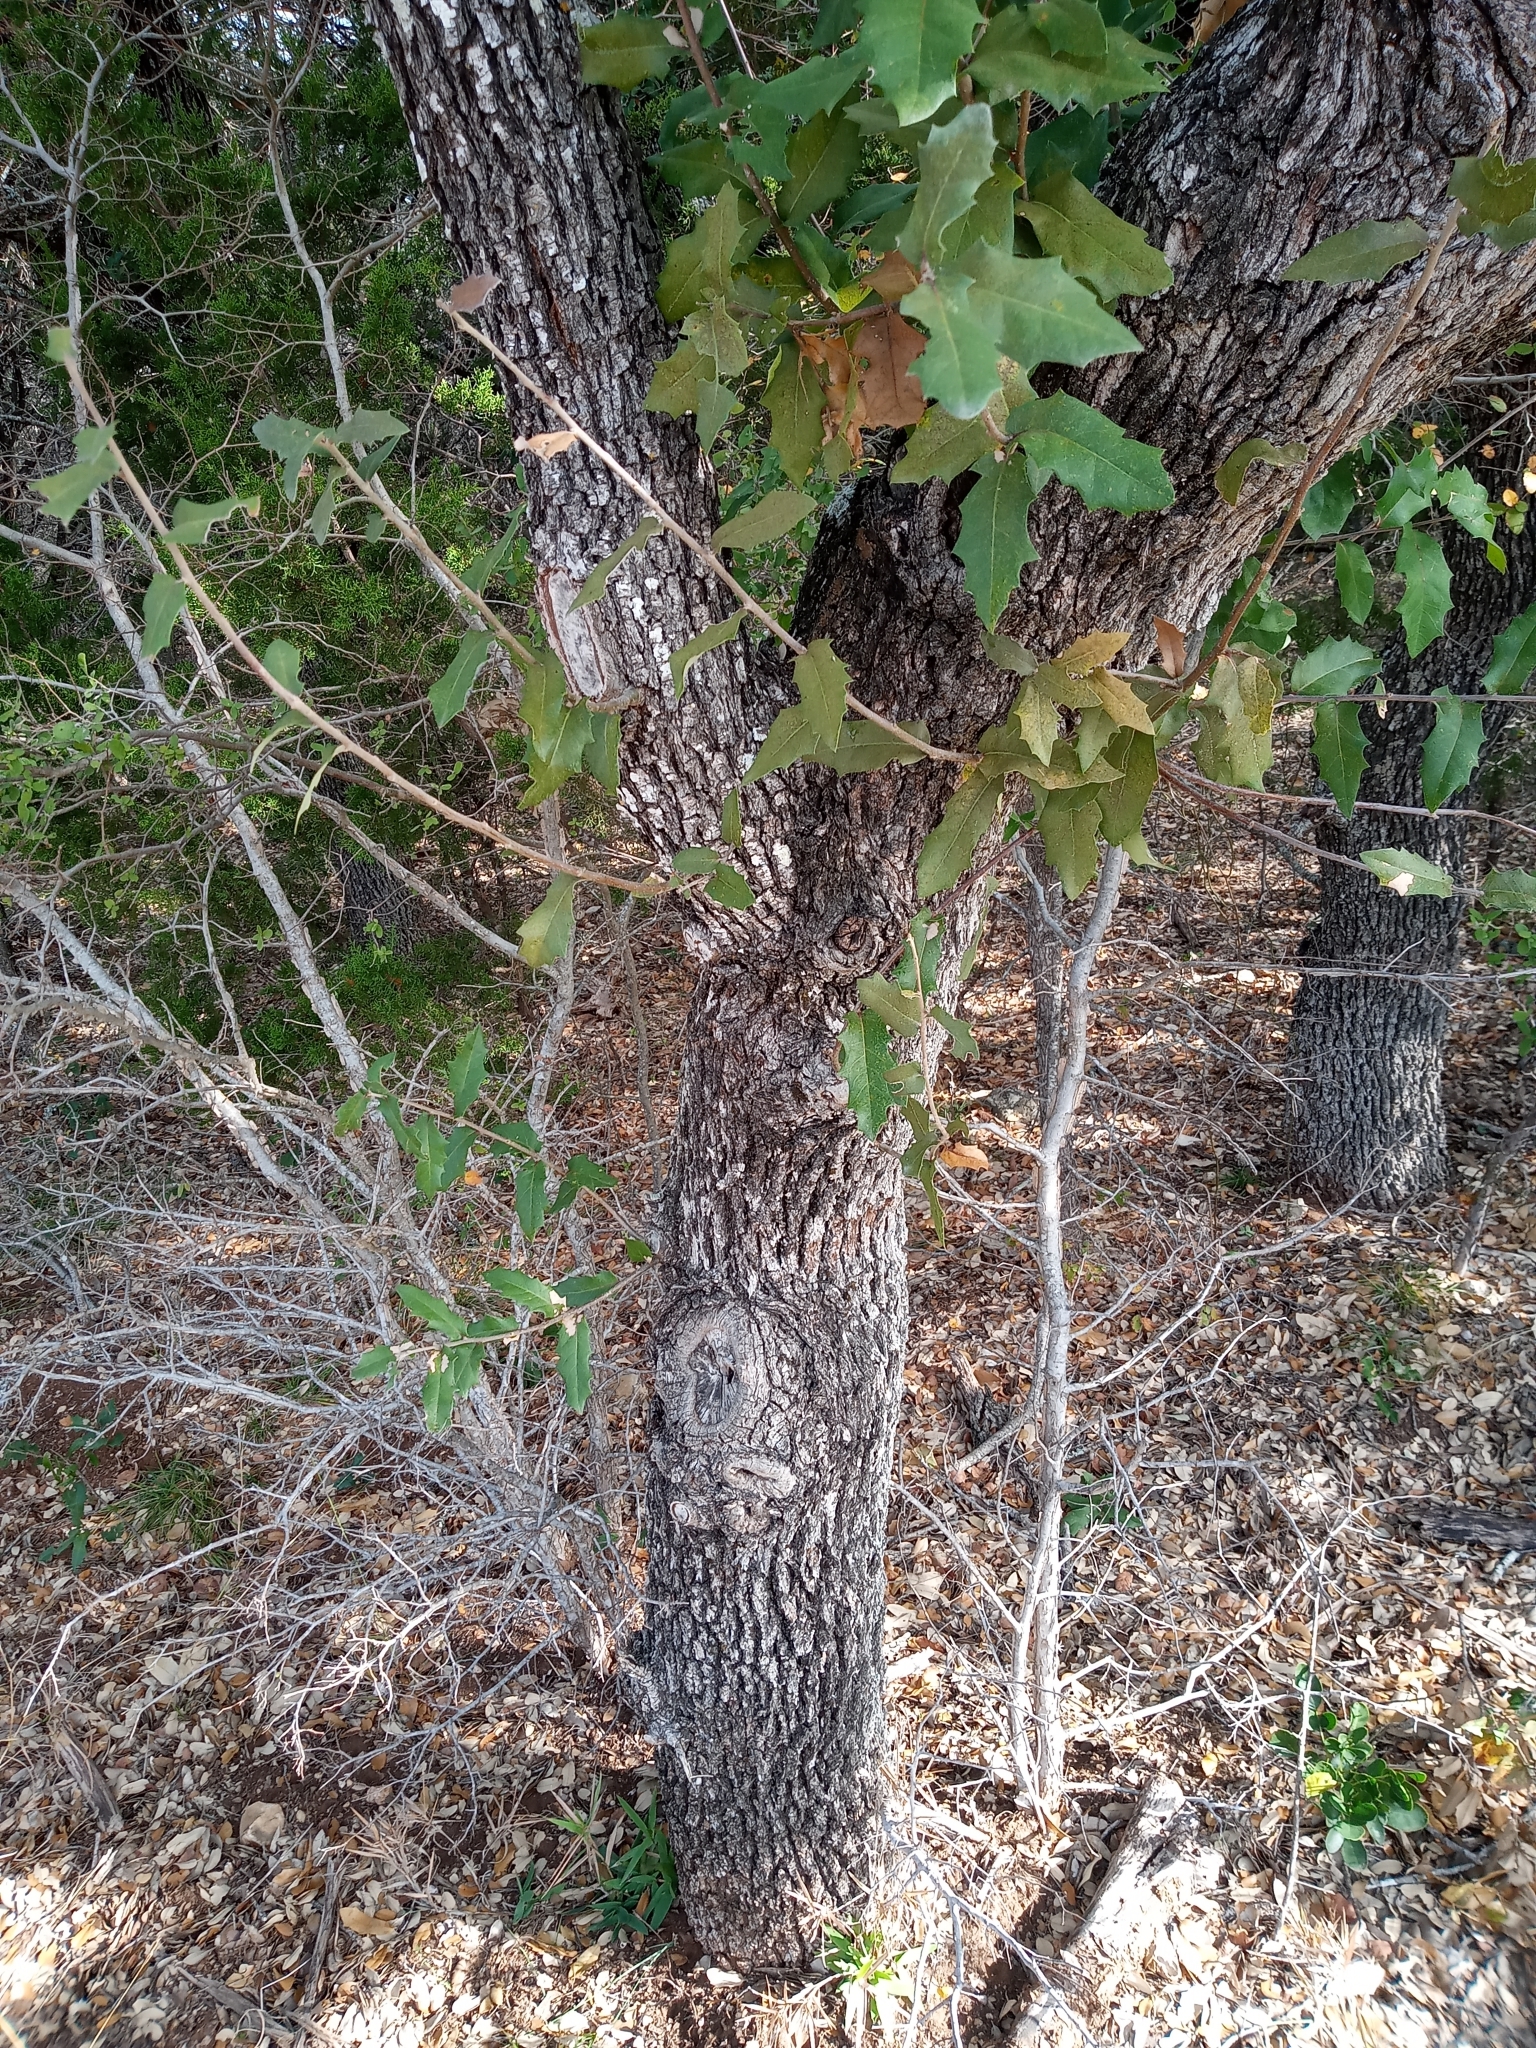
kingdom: Plantae
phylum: Tracheophyta
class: Magnoliopsida
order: Fagales
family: Fagaceae
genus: Quercus
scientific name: Quercus fusiformis
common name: Texas live oak
